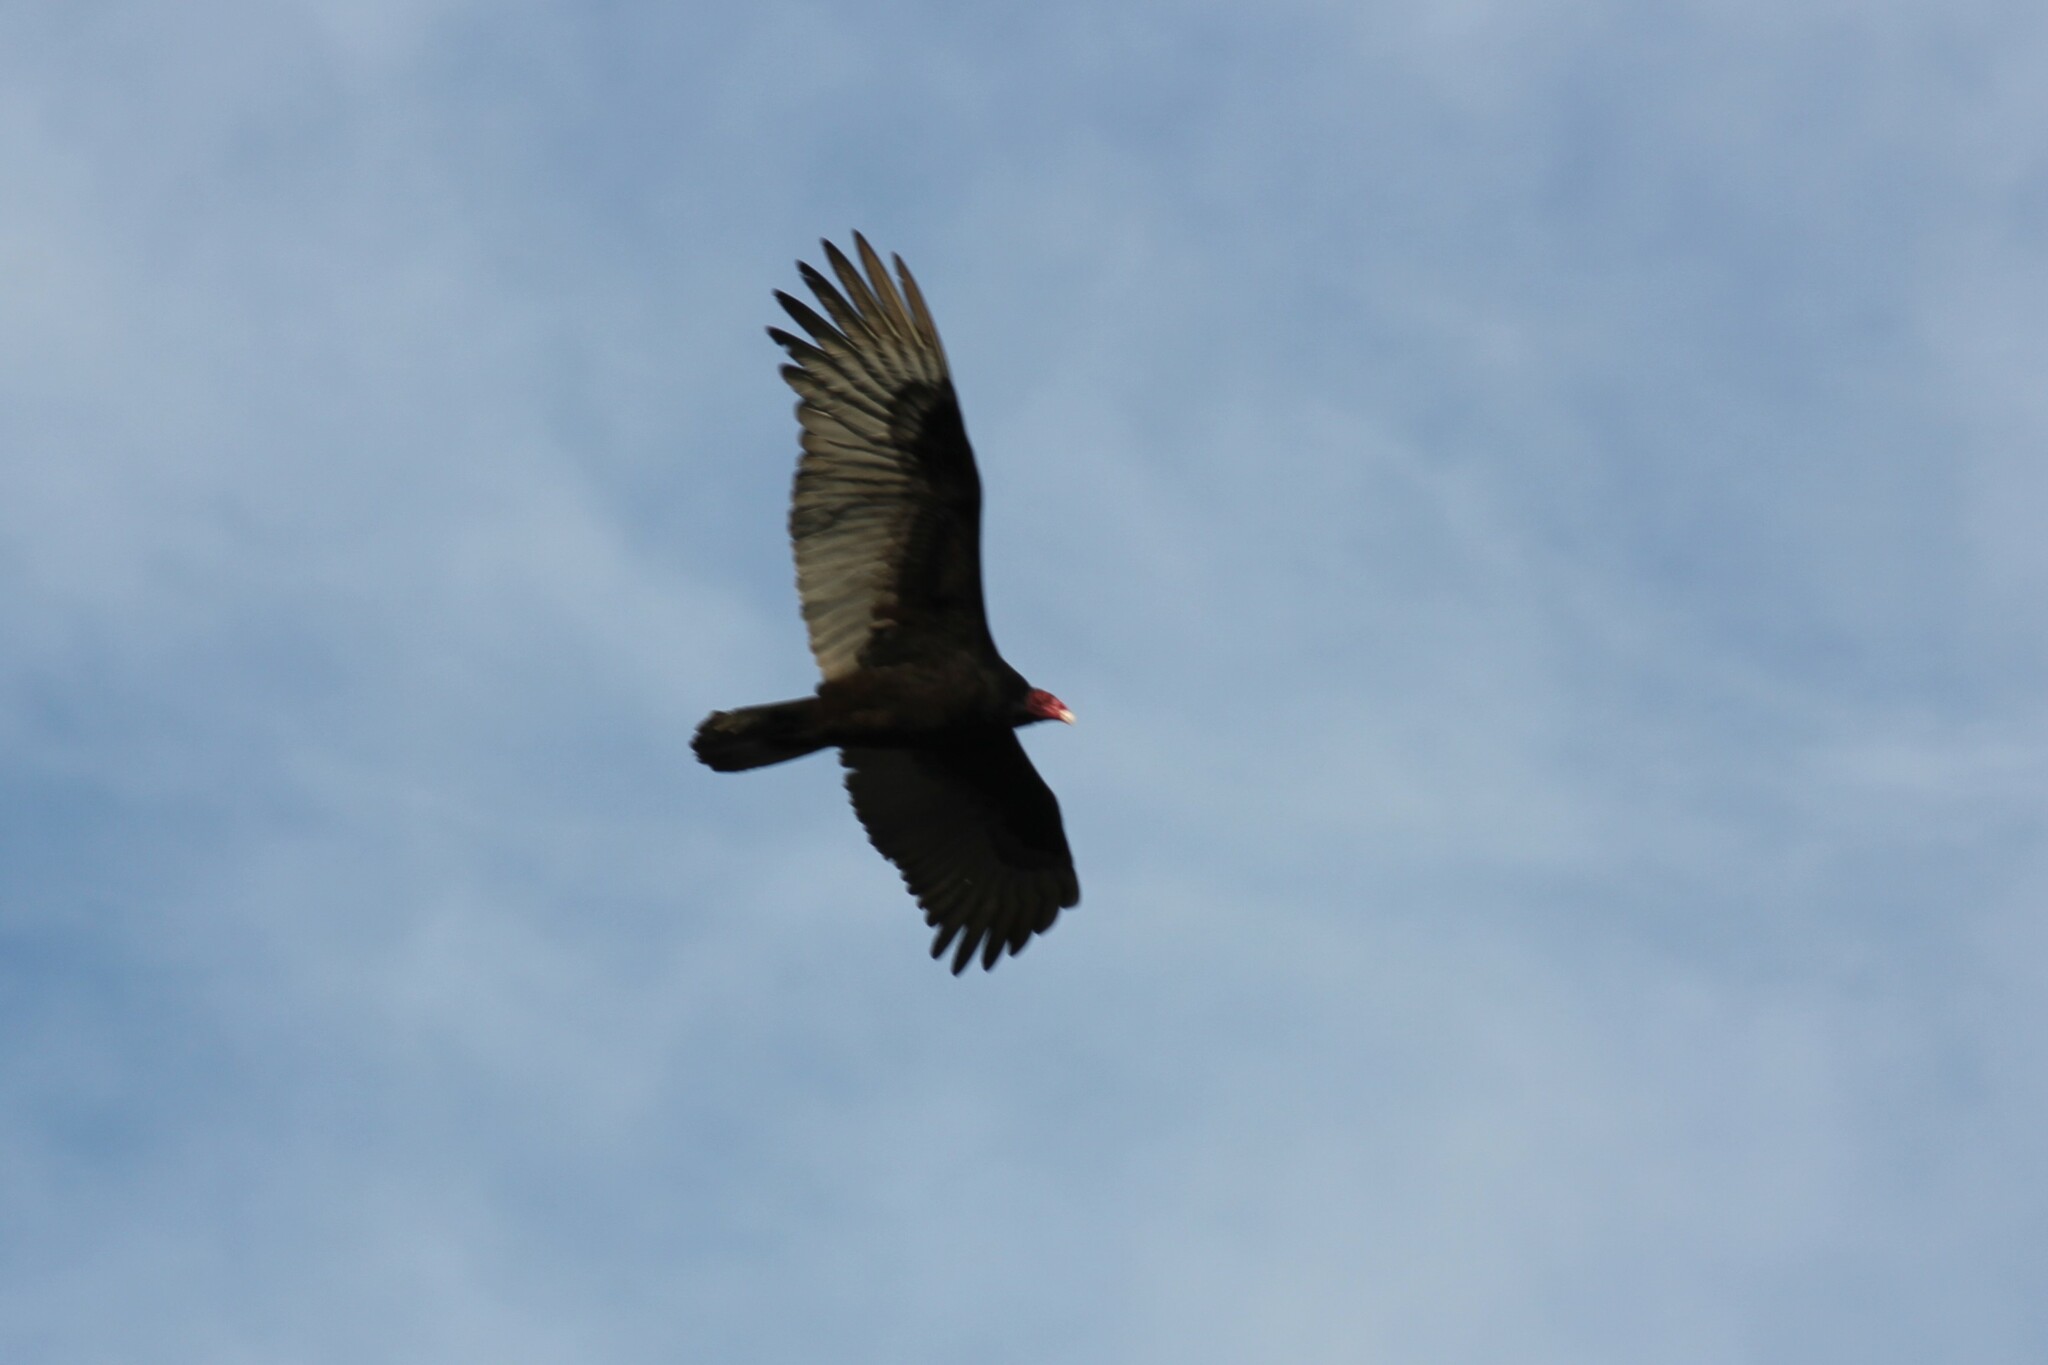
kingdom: Animalia
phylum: Chordata
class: Aves
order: Accipitriformes
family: Cathartidae
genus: Cathartes
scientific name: Cathartes aura
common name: Turkey vulture
